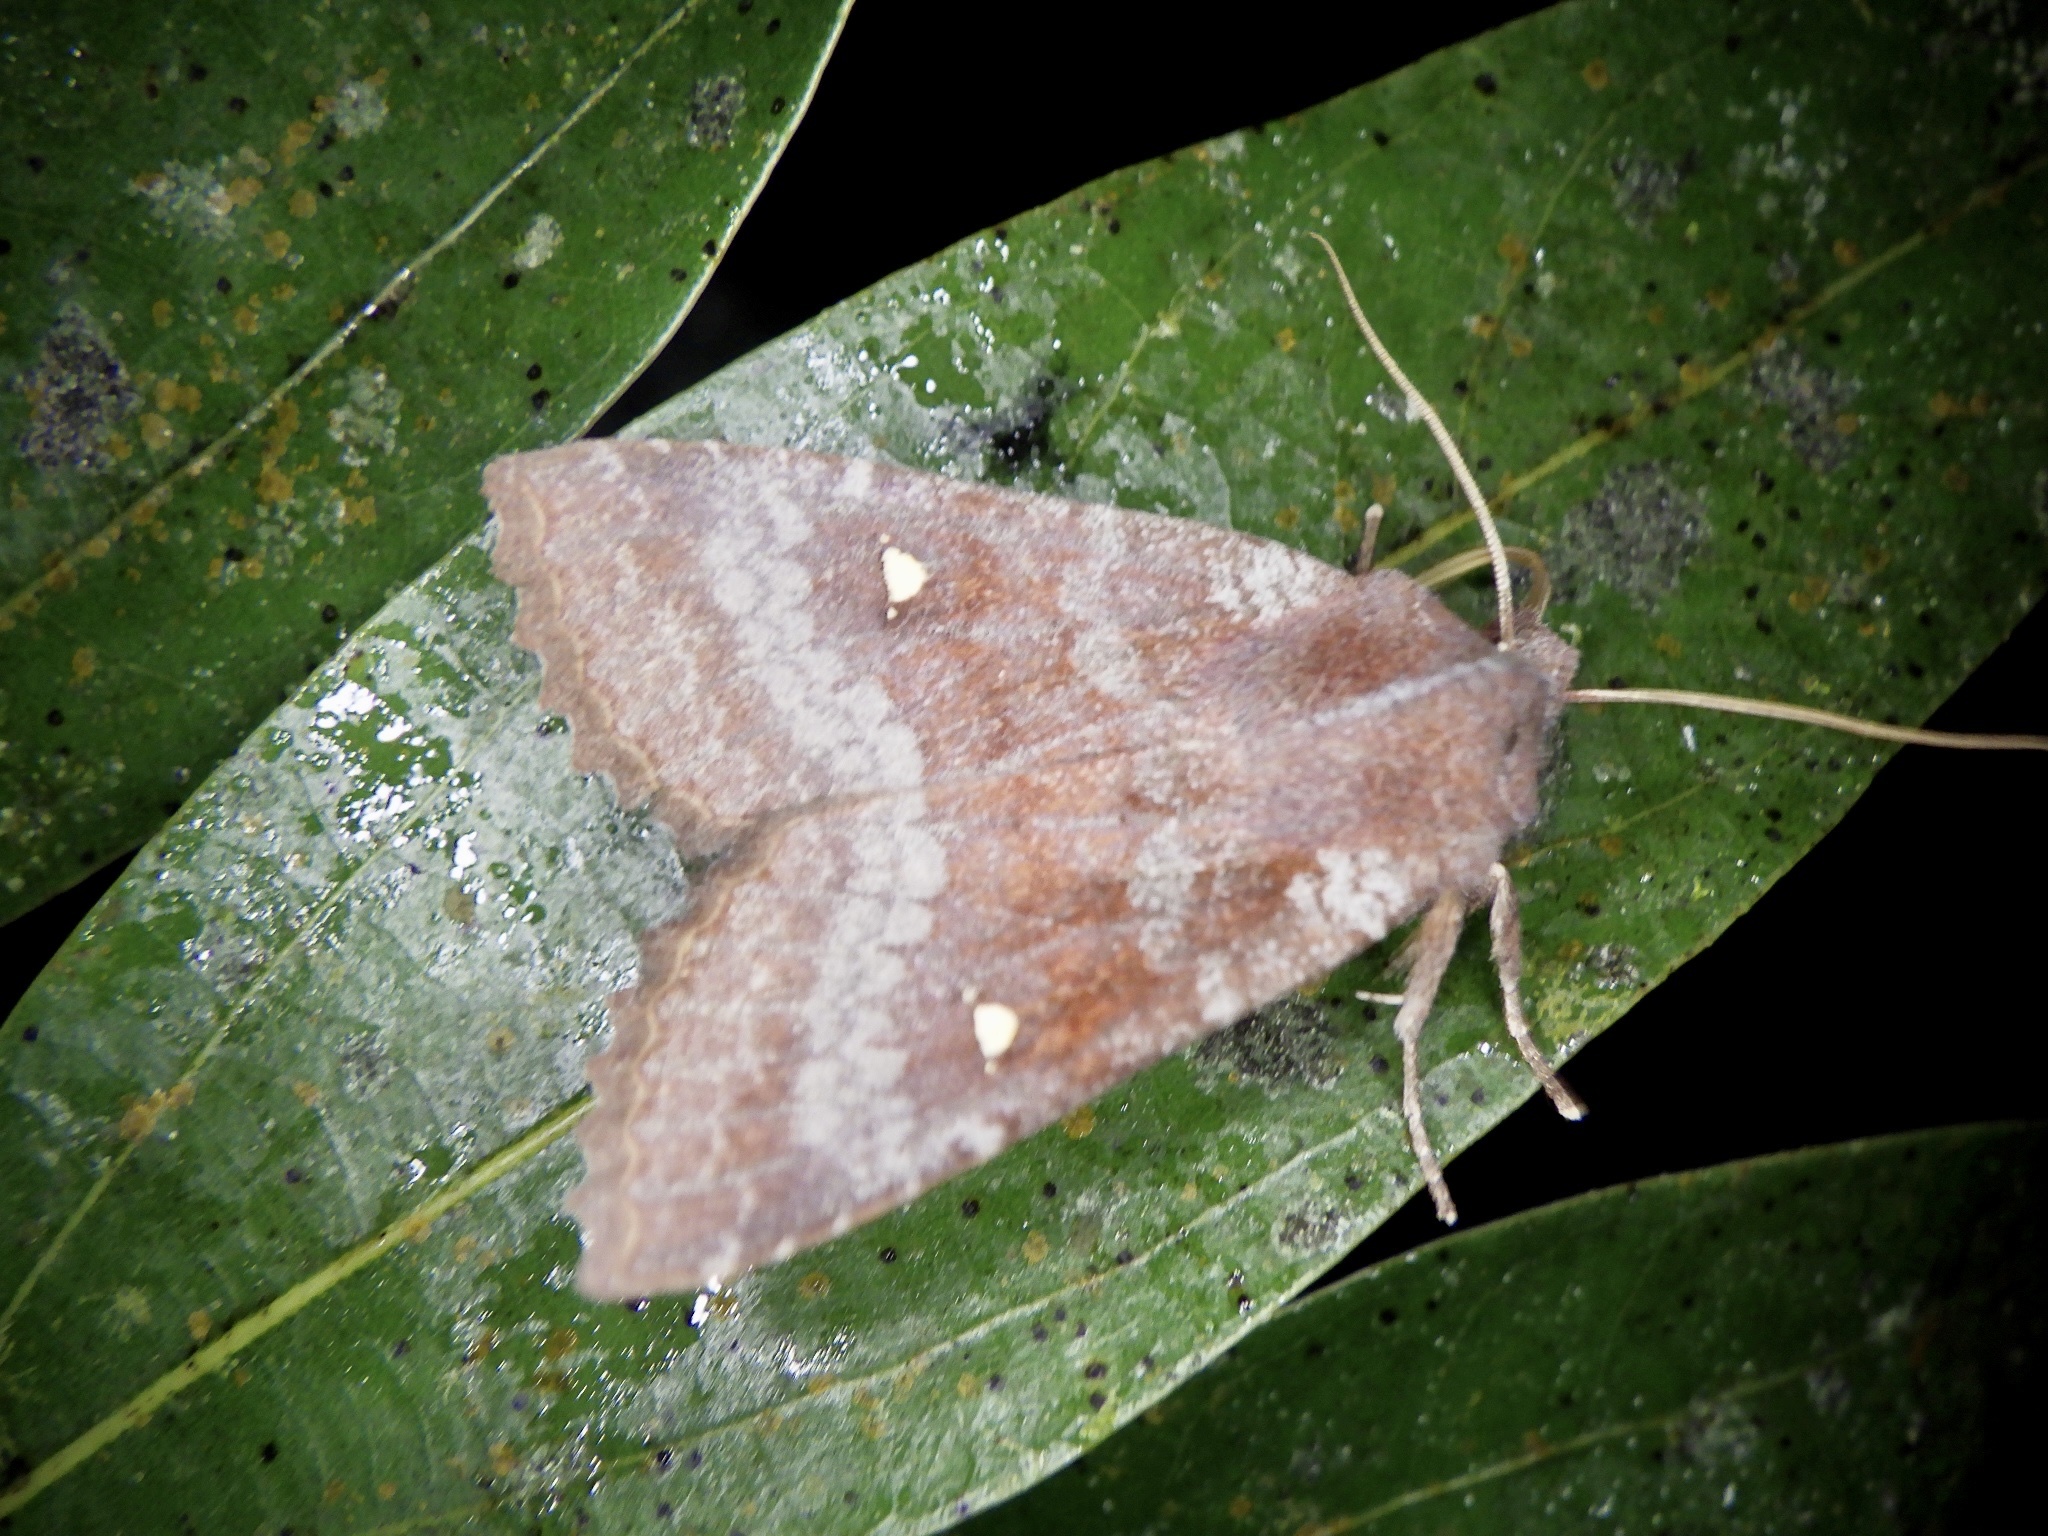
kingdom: Animalia
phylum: Arthropoda
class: Insecta
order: Lepidoptera
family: Noctuidae
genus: Eupsilia
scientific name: Eupsilia unipuncta
